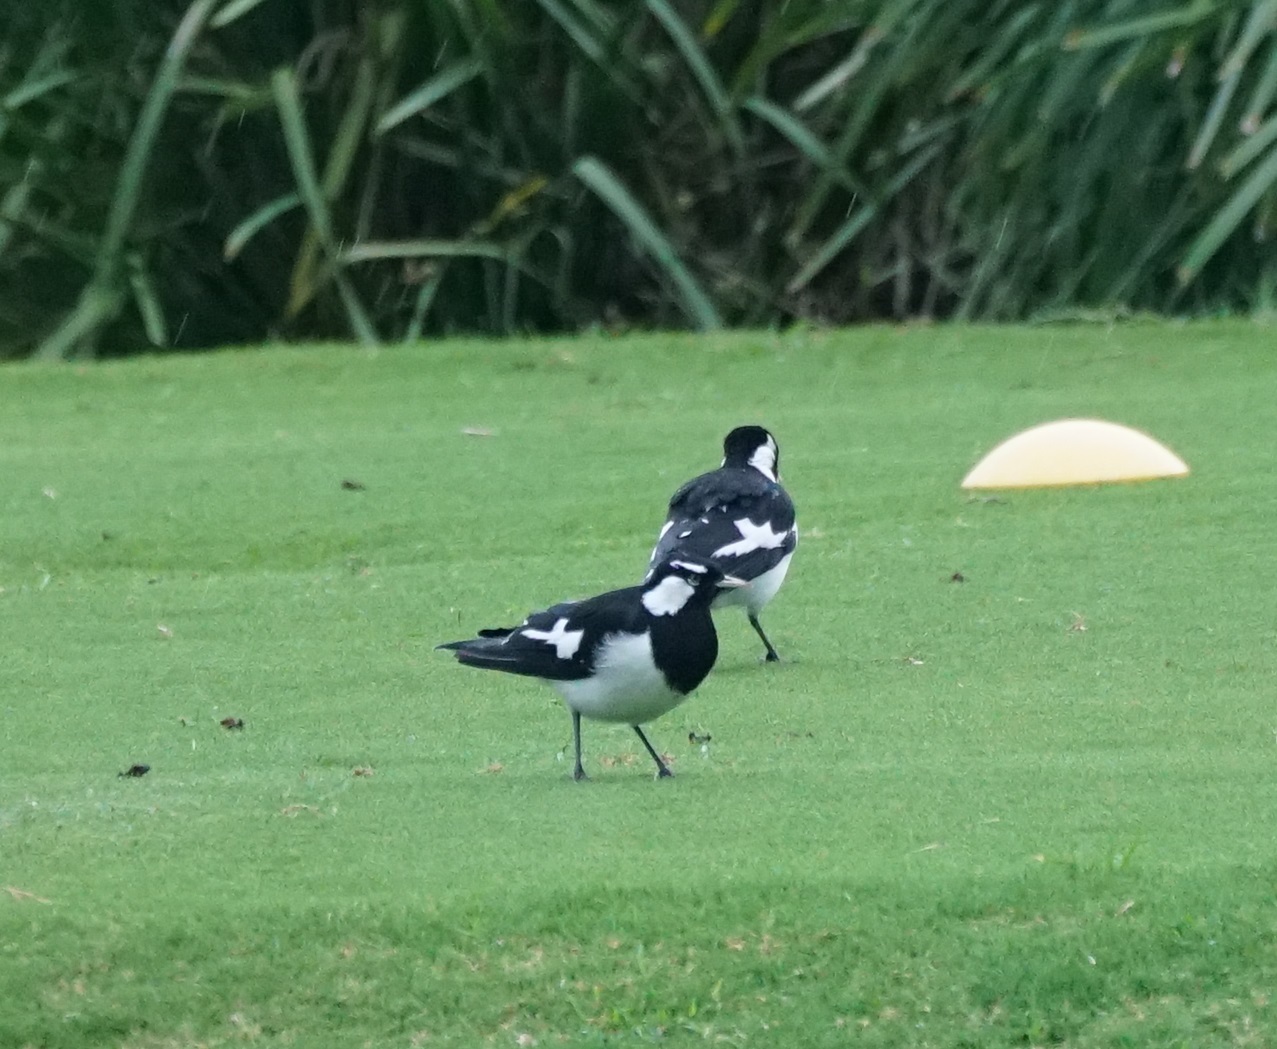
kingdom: Animalia
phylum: Chordata
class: Aves
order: Passeriformes
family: Monarchidae
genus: Grallina
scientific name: Grallina cyanoleuca
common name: Magpie-lark
